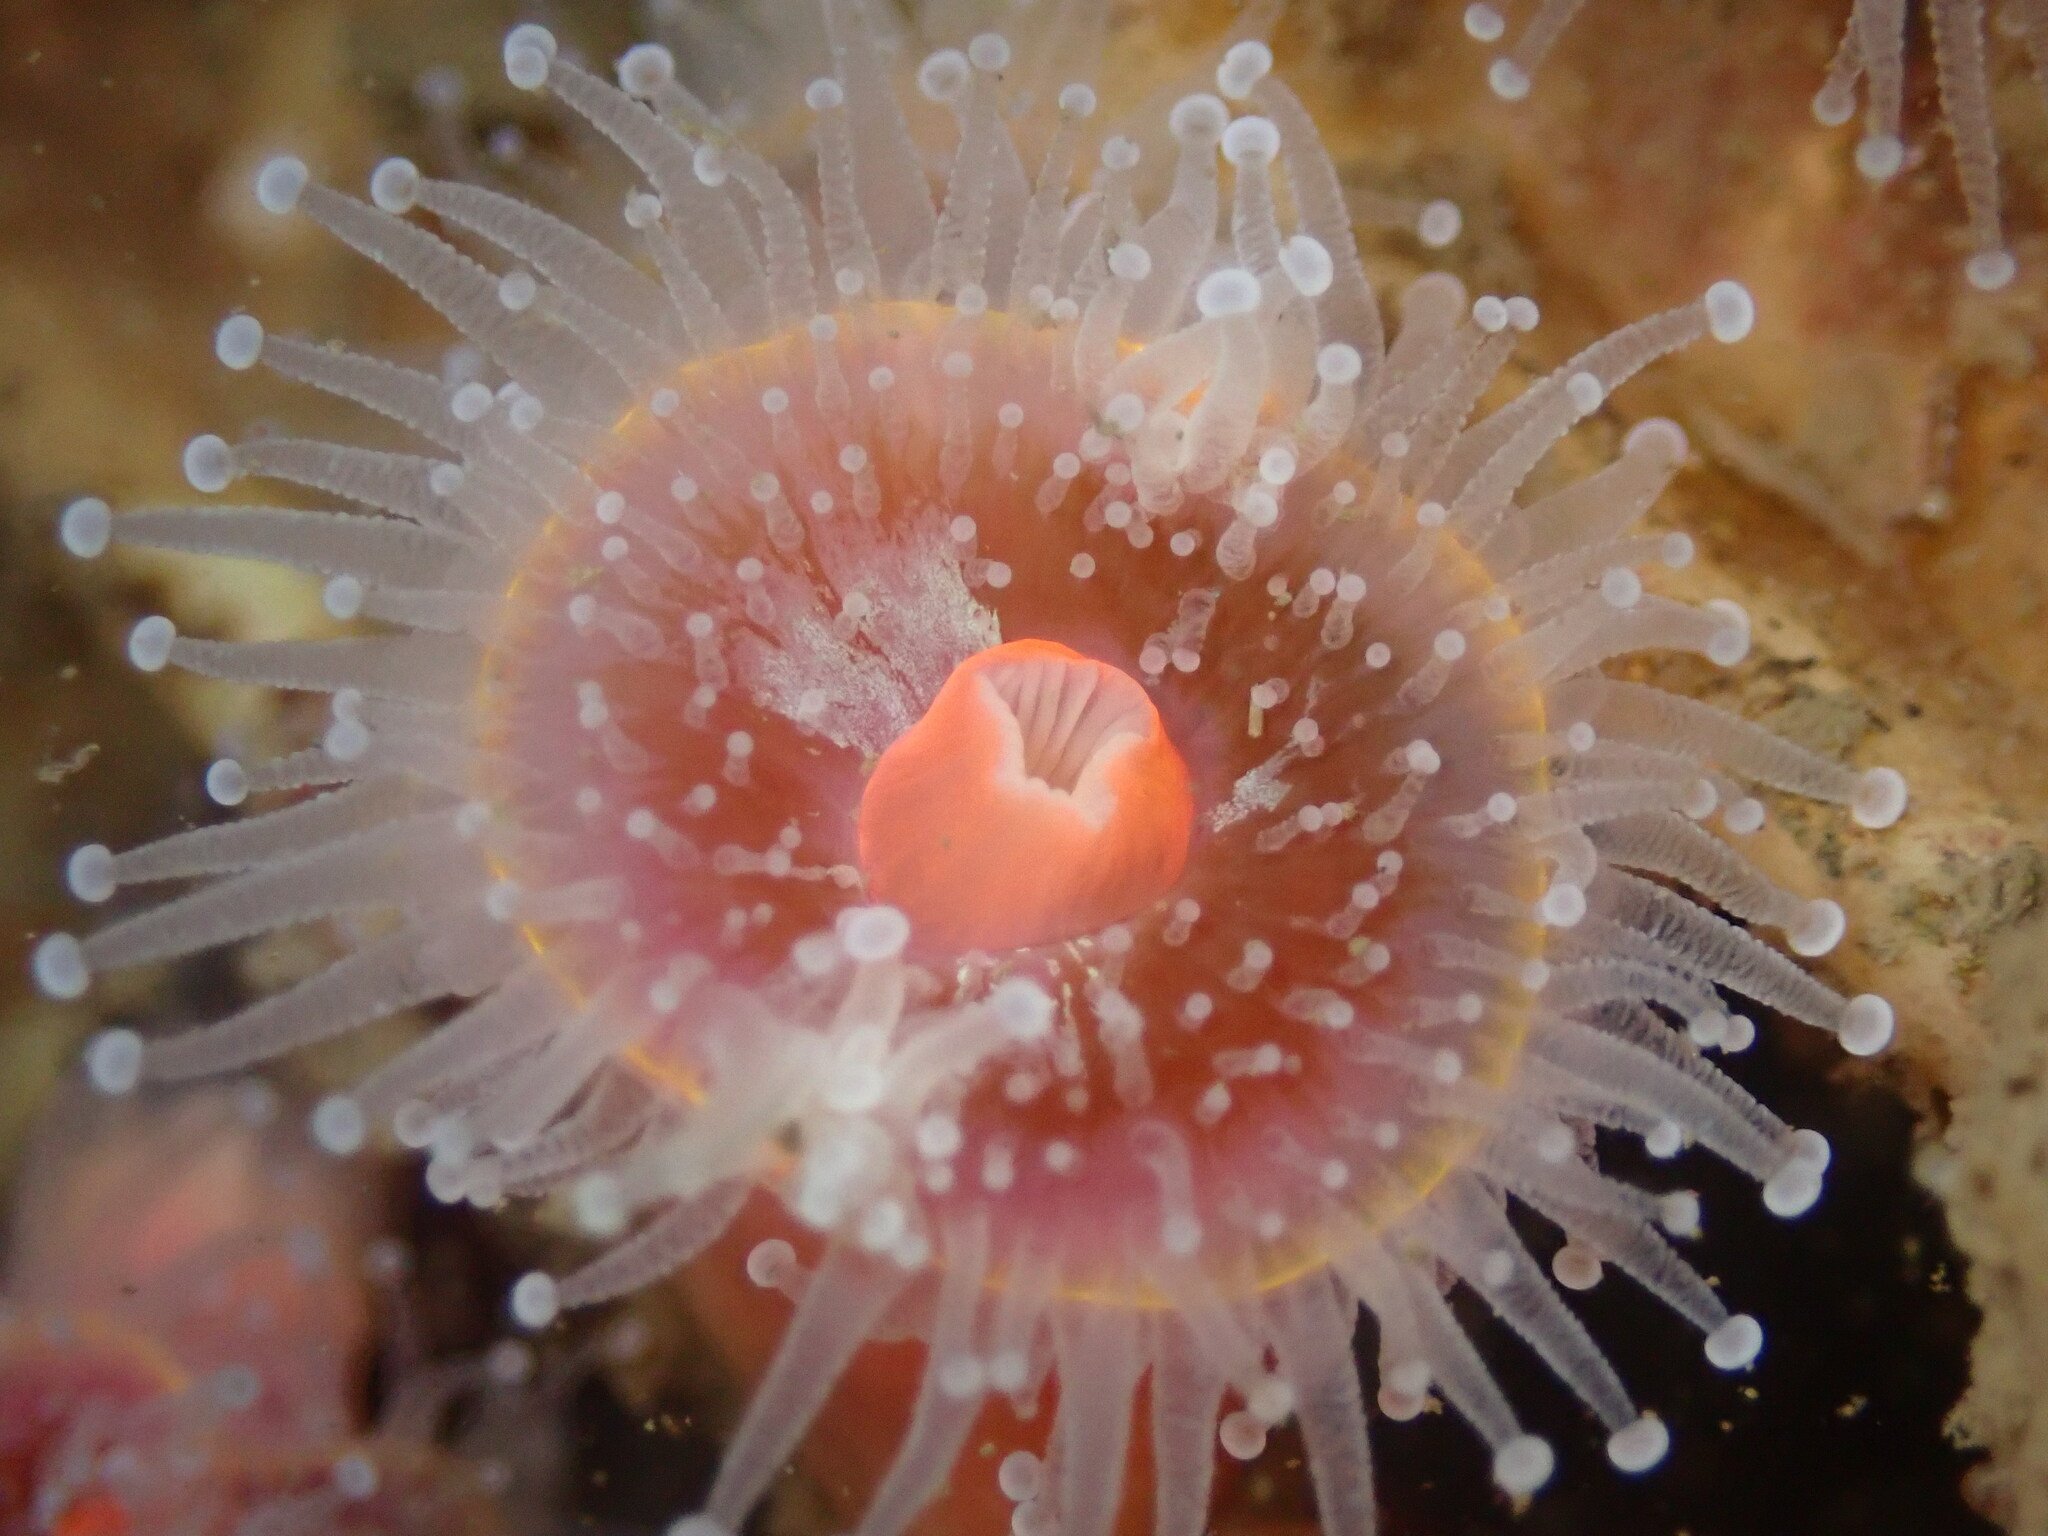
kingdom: Animalia
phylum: Cnidaria
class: Anthozoa
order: Corallimorpharia
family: Corallimorphidae
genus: Corynactis
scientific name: Corynactis californica
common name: Strawberry corallimorpharian
